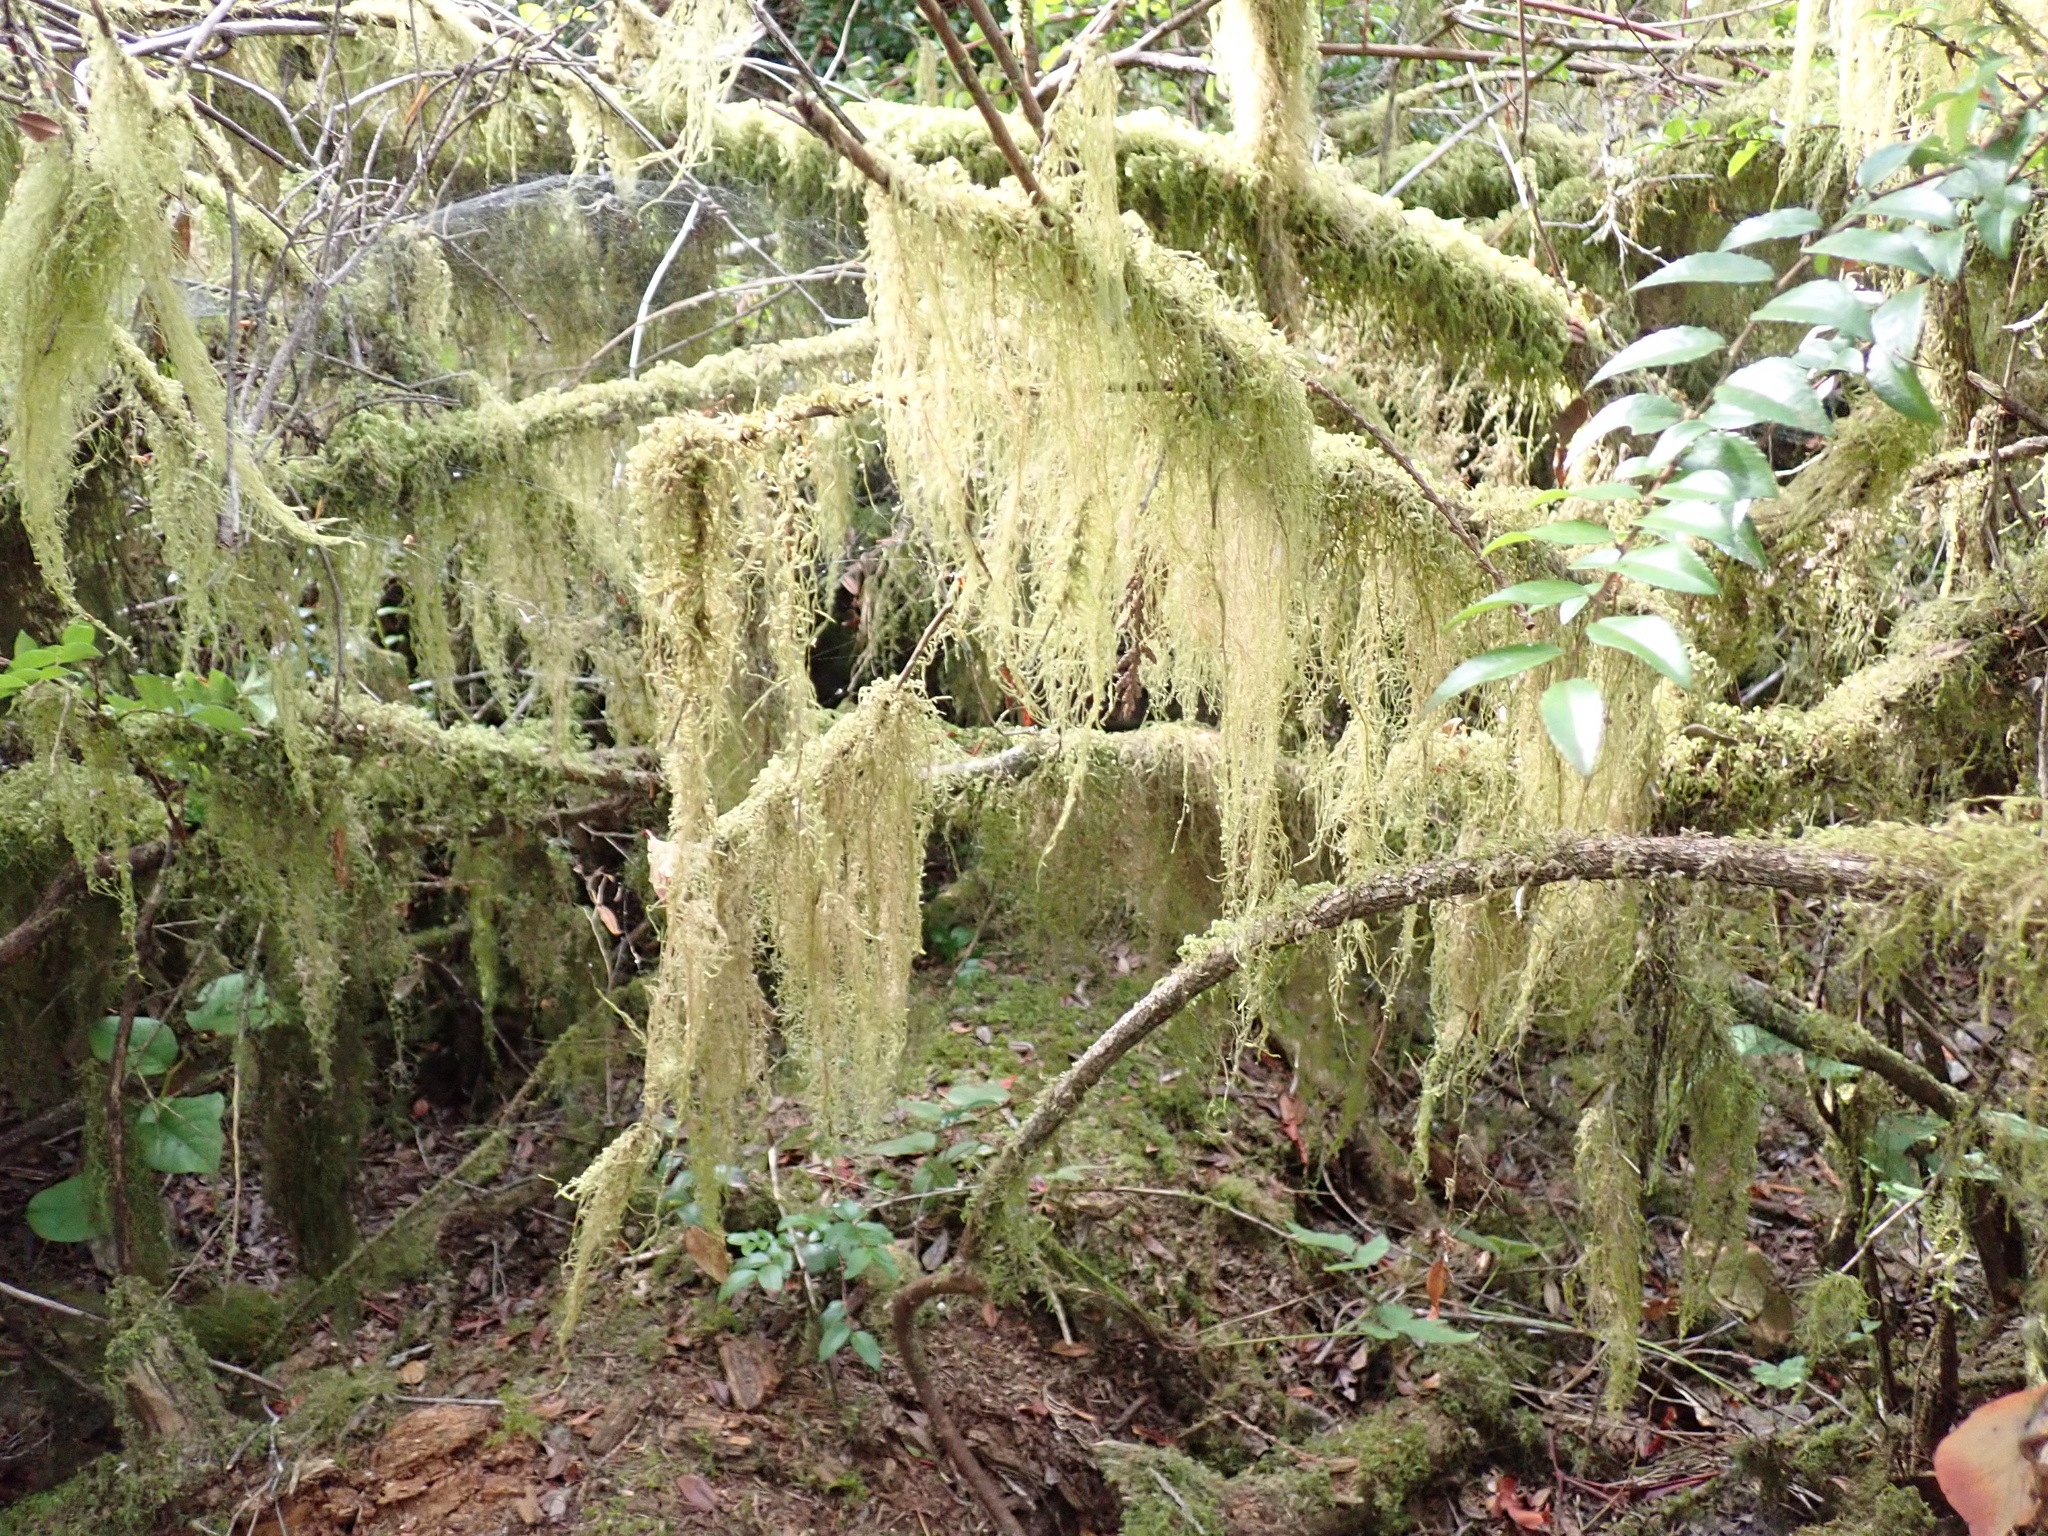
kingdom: Plantae
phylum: Bryophyta
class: Bryopsida
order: Hypnales
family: Lembophyllaceae
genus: Pseudisothecium
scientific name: Pseudisothecium stoloniferum
